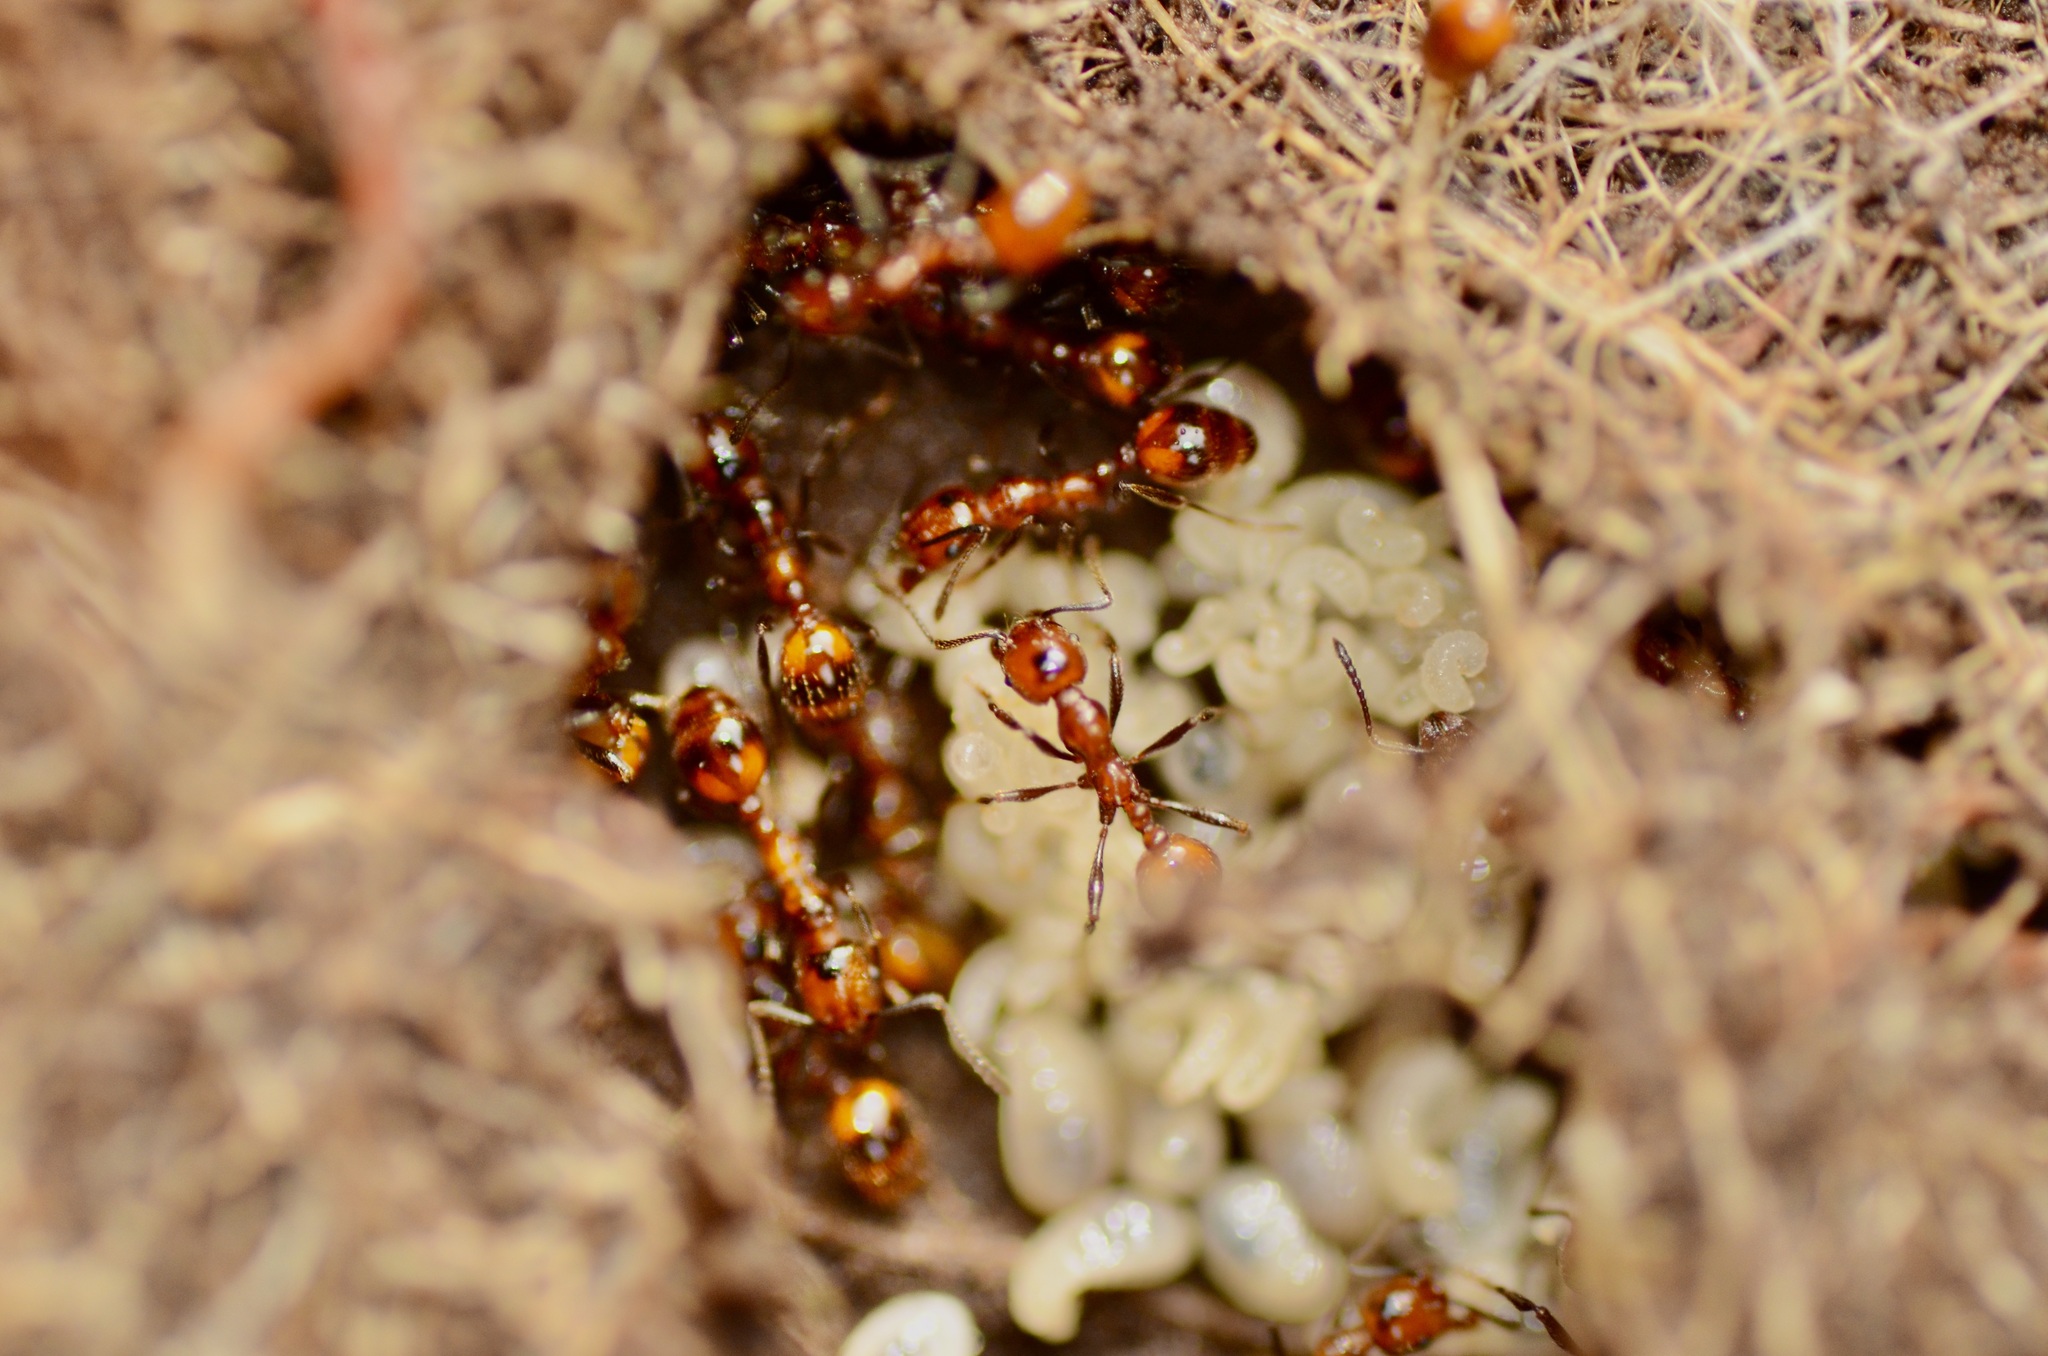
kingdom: Animalia
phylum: Arthropoda
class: Insecta
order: Hymenoptera
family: Formicidae
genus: Huberia
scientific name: Huberia striata
